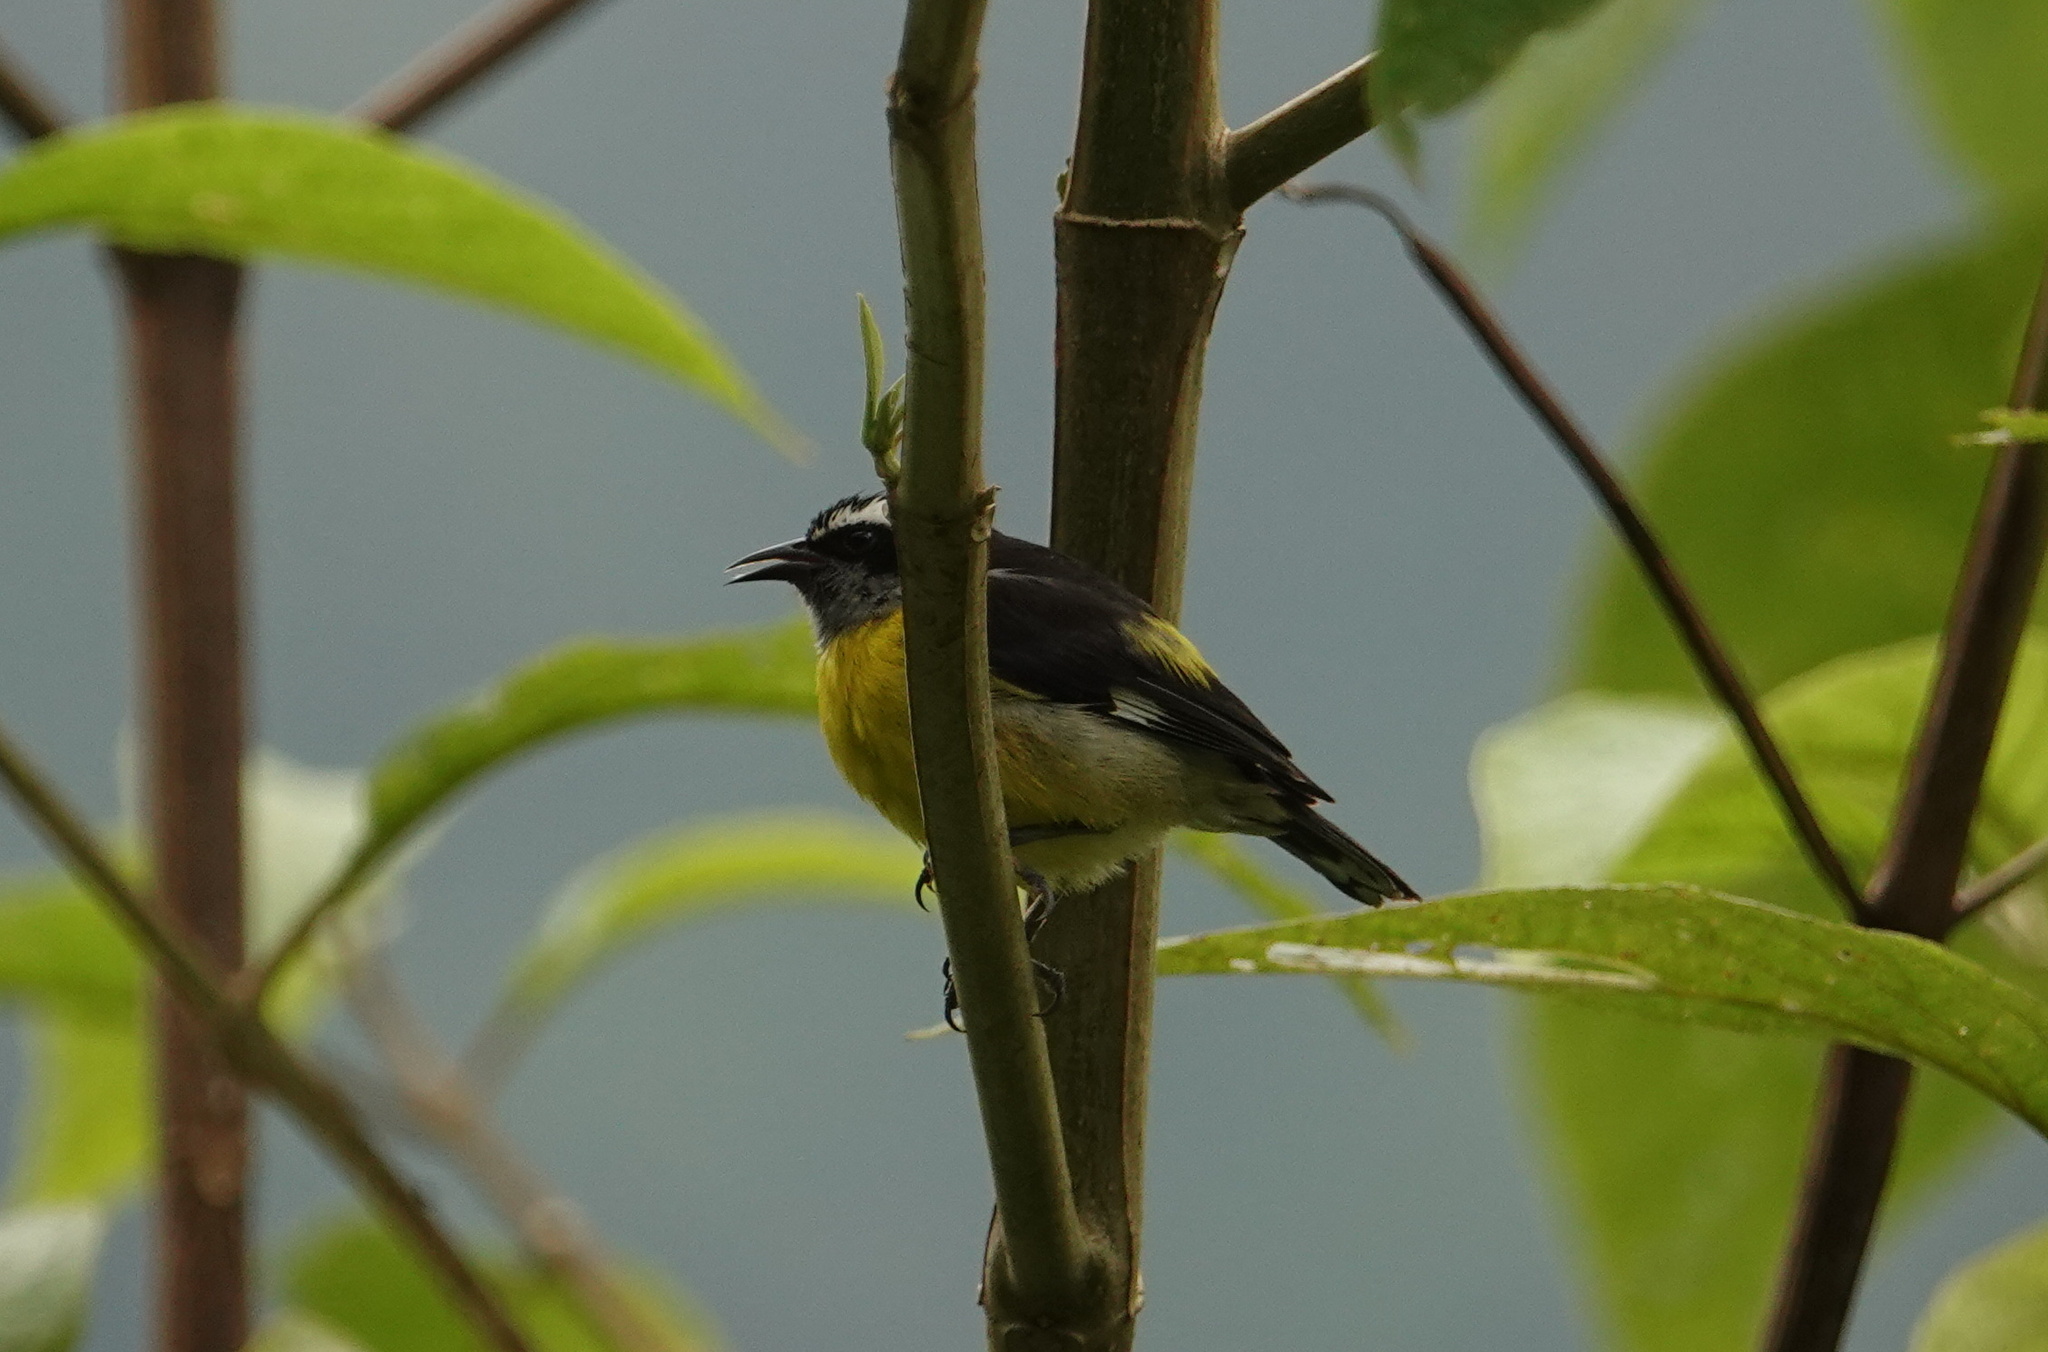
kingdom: Animalia
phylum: Chordata
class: Aves
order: Passeriformes
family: Thraupidae
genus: Coereba
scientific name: Coereba flaveola
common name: Bananaquit
